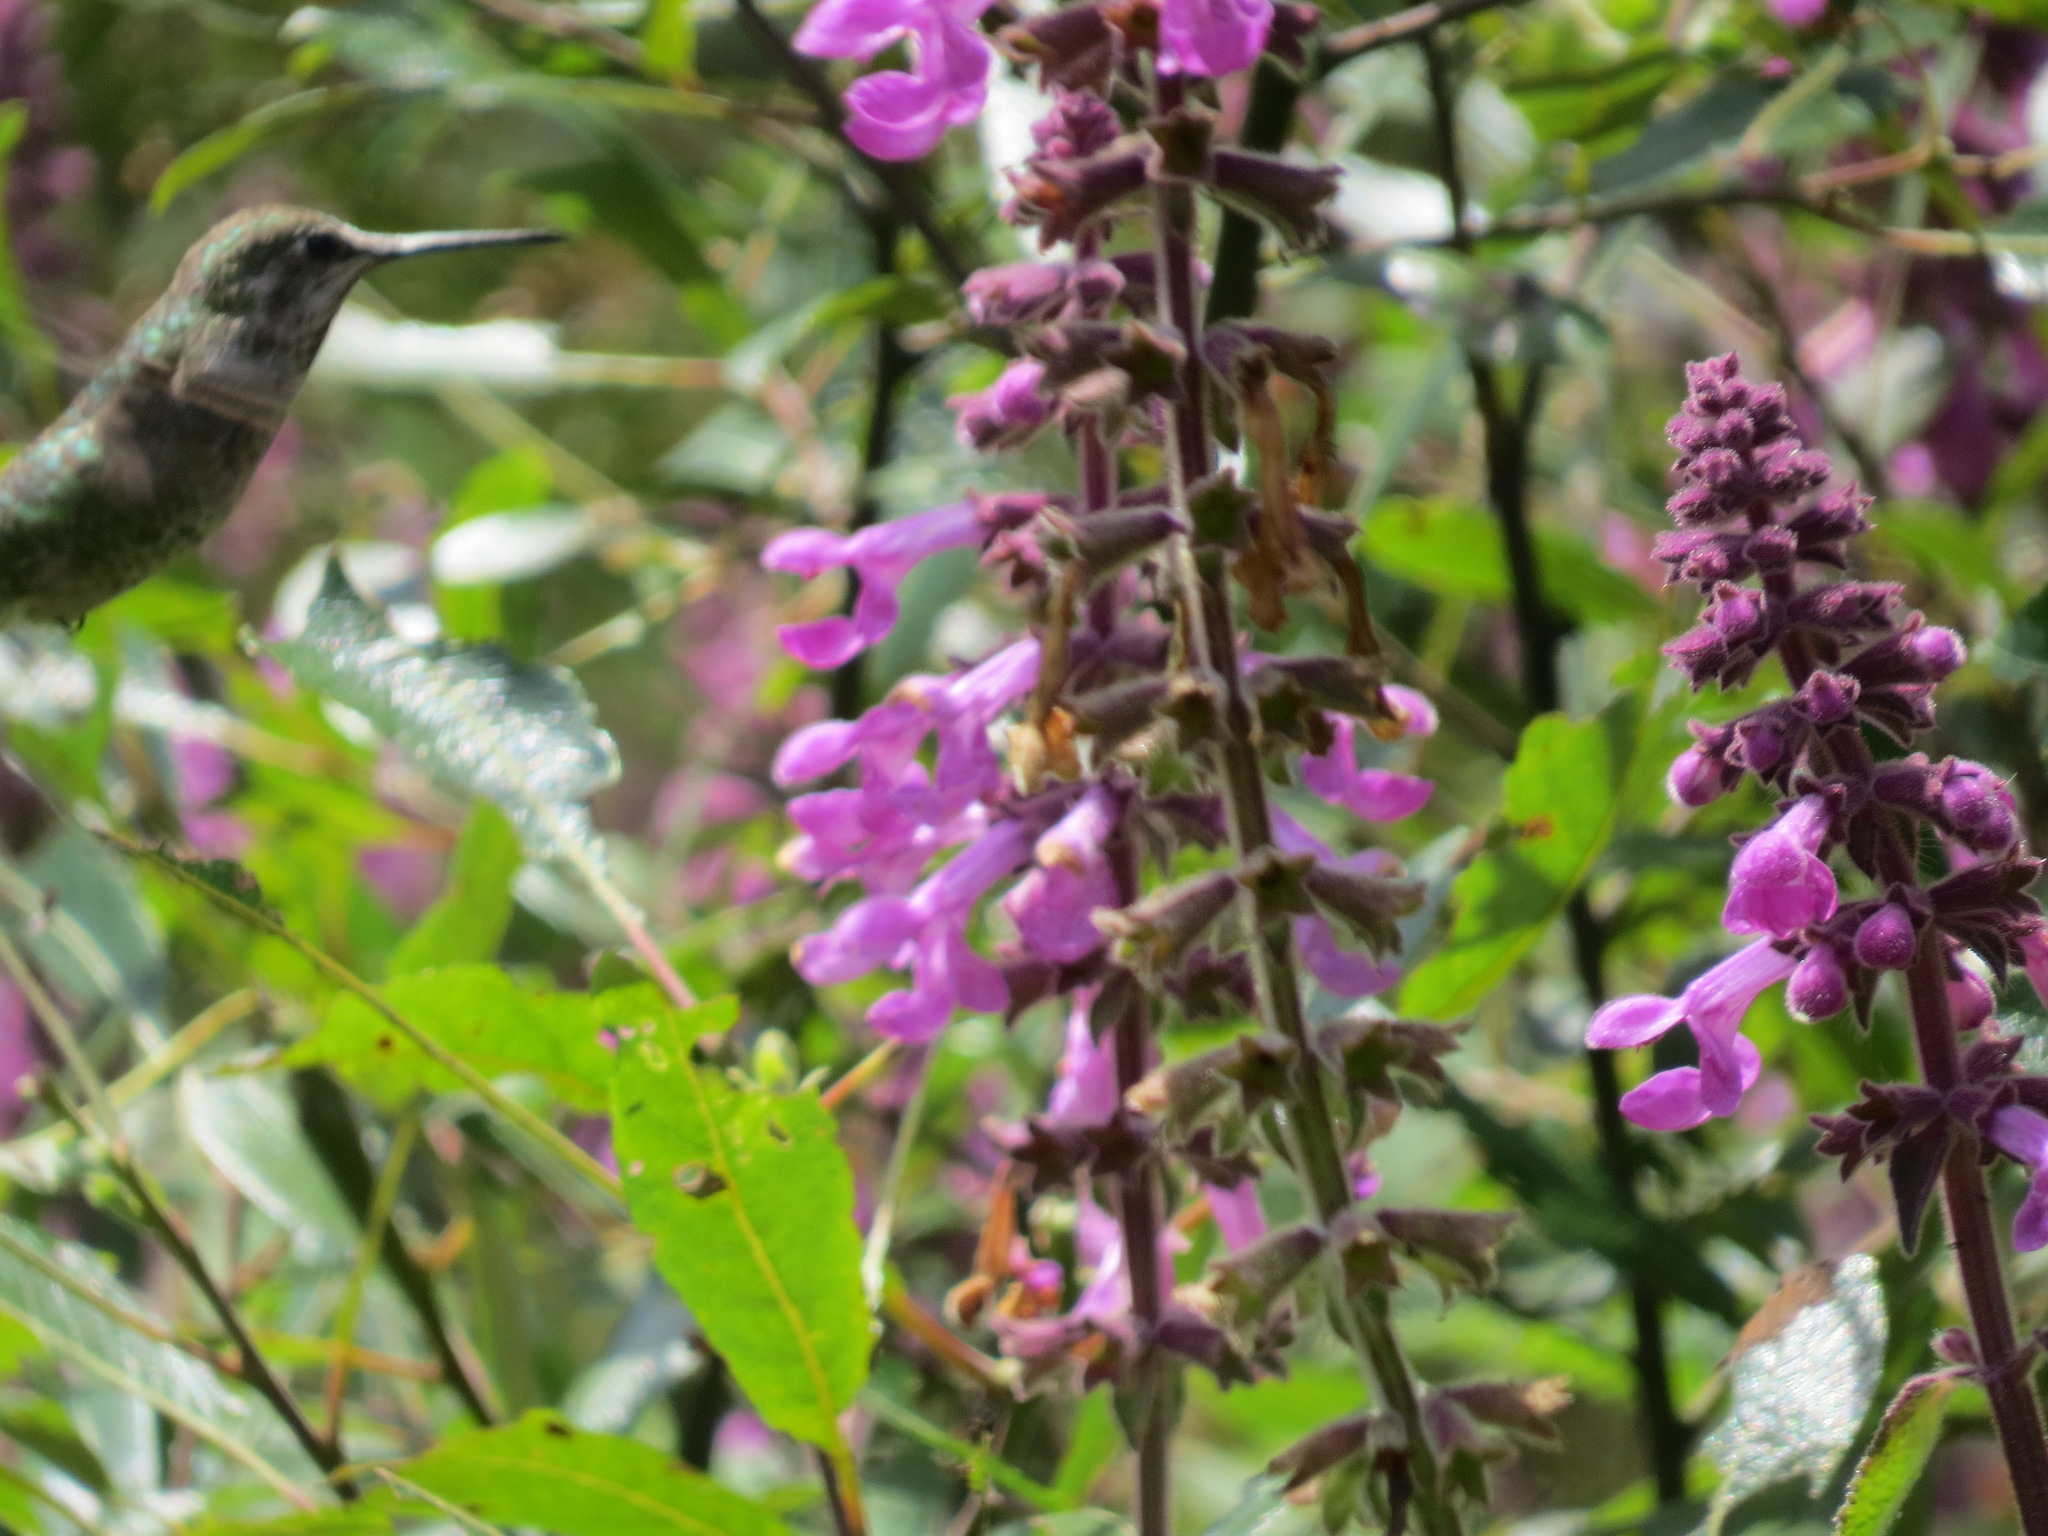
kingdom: Animalia
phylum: Chordata
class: Aves
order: Apodiformes
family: Trochilidae
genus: Calypte
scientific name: Calypte anna
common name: Anna's hummingbird
